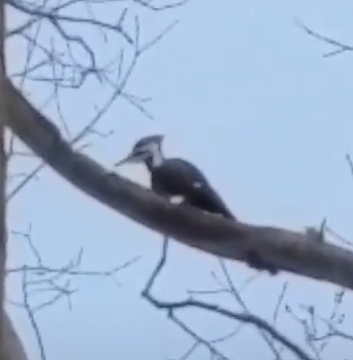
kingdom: Animalia
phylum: Chordata
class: Aves
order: Piciformes
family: Picidae
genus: Dryocopus
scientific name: Dryocopus pileatus
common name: Pileated woodpecker
